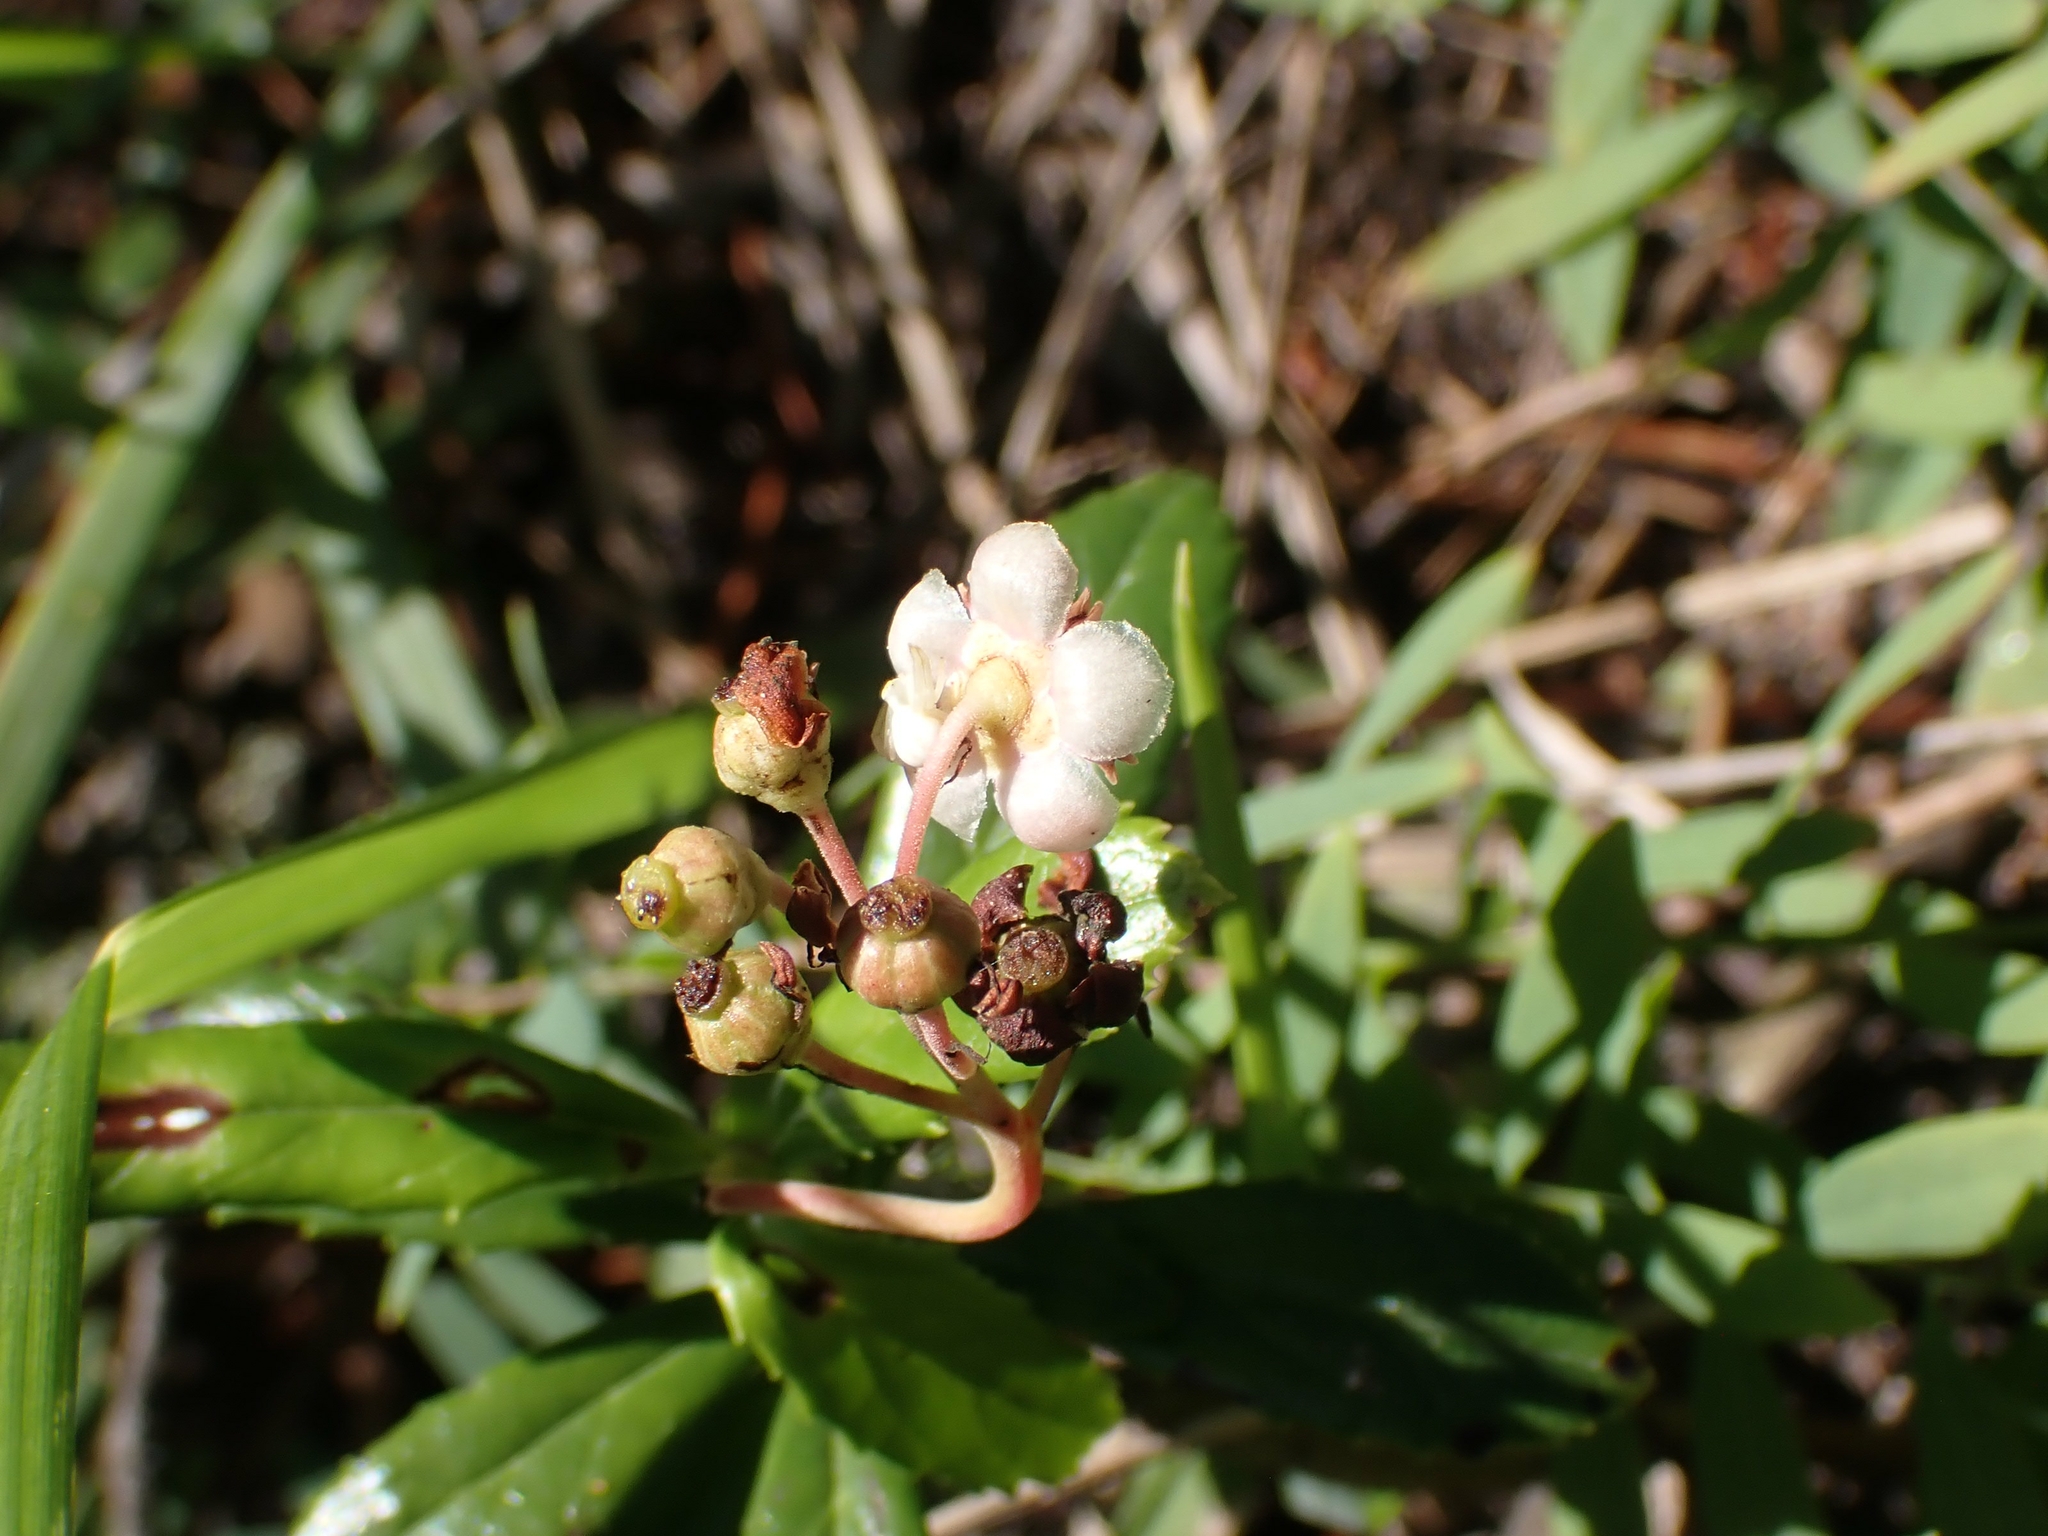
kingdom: Plantae
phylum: Tracheophyta
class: Magnoliopsida
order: Ericales
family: Ericaceae
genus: Chimaphila
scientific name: Chimaphila umbellata
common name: Pipsissewa
